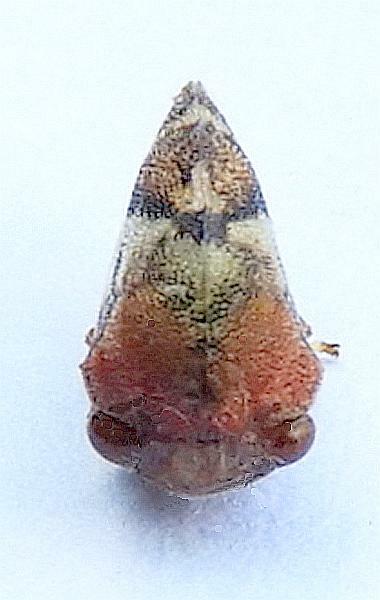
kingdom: Animalia
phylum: Arthropoda
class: Insecta
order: Hemiptera
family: Membracidae
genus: Cyrtolobus
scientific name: Cyrtolobus pallidifrontis
